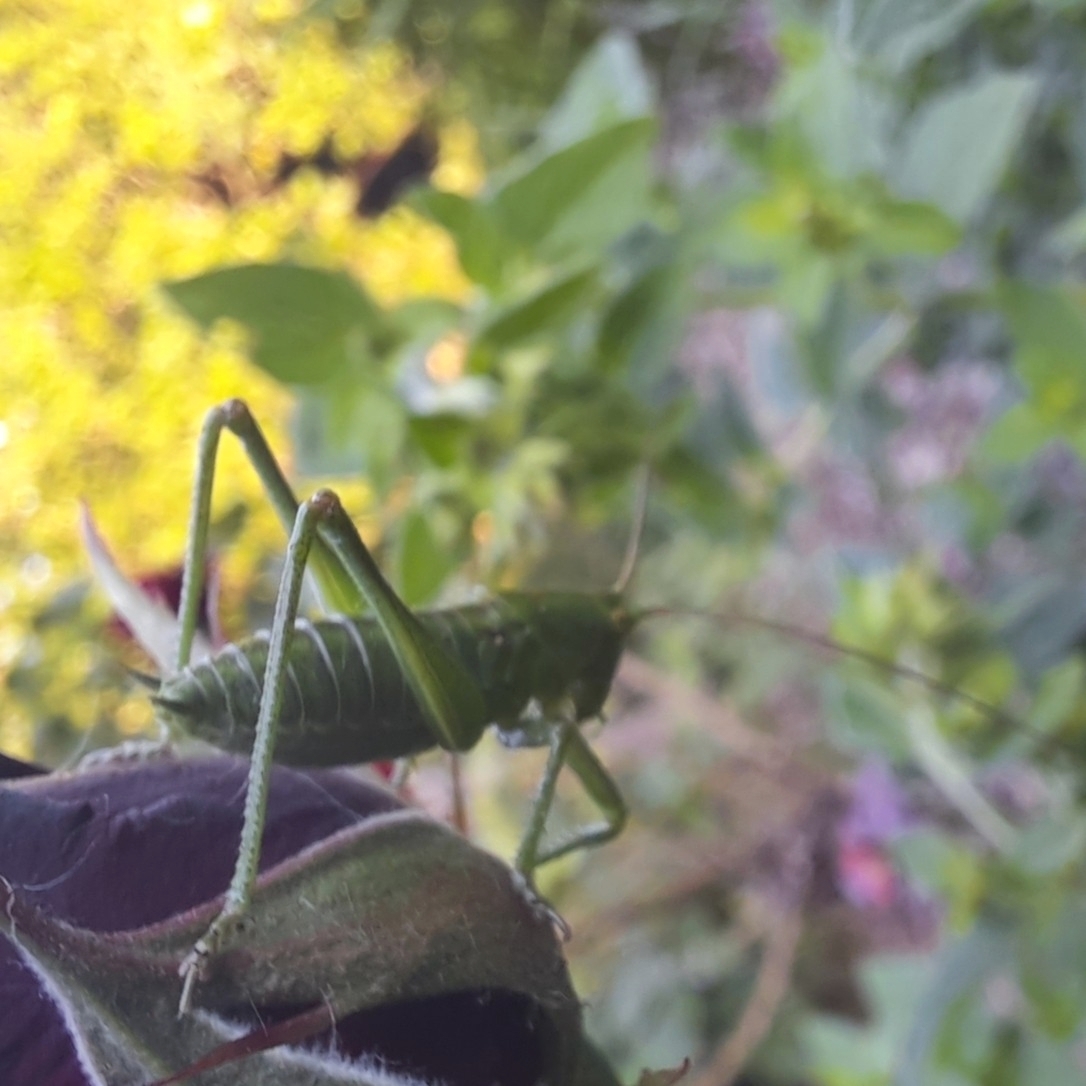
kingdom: Animalia
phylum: Arthropoda
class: Insecta
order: Orthoptera
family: Tettigoniidae
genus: Tettigonia
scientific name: Tettigonia viridissima
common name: Great green bush-cricket
